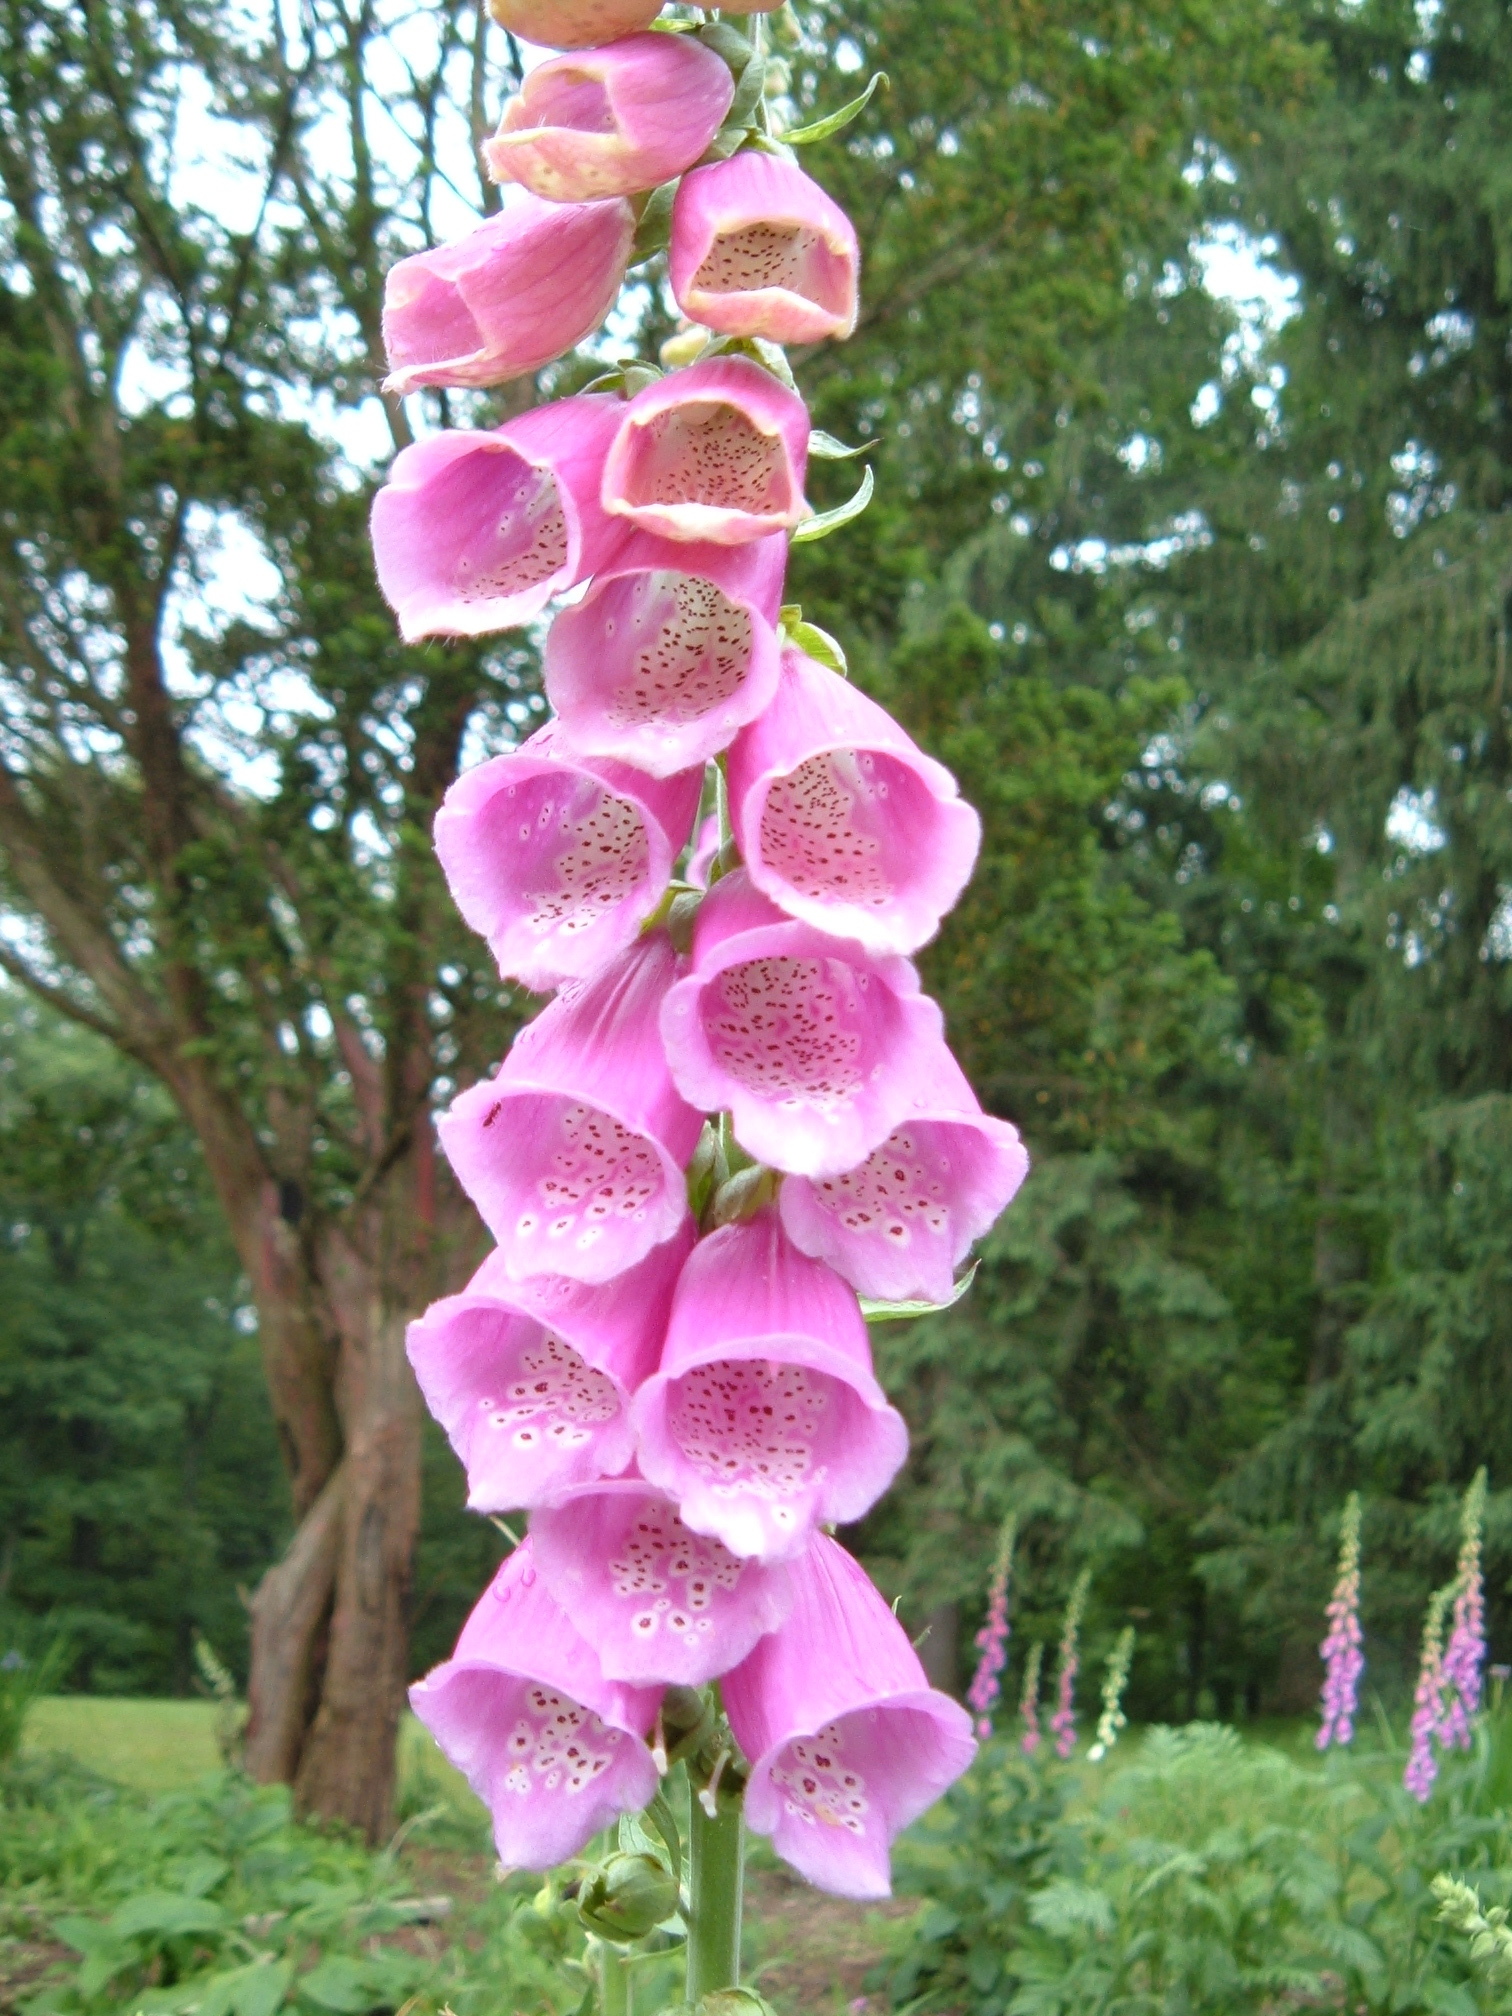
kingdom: Plantae
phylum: Tracheophyta
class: Magnoliopsida
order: Lamiales
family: Plantaginaceae
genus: Digitalis
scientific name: Digitalis purpurea
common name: Foxglove
